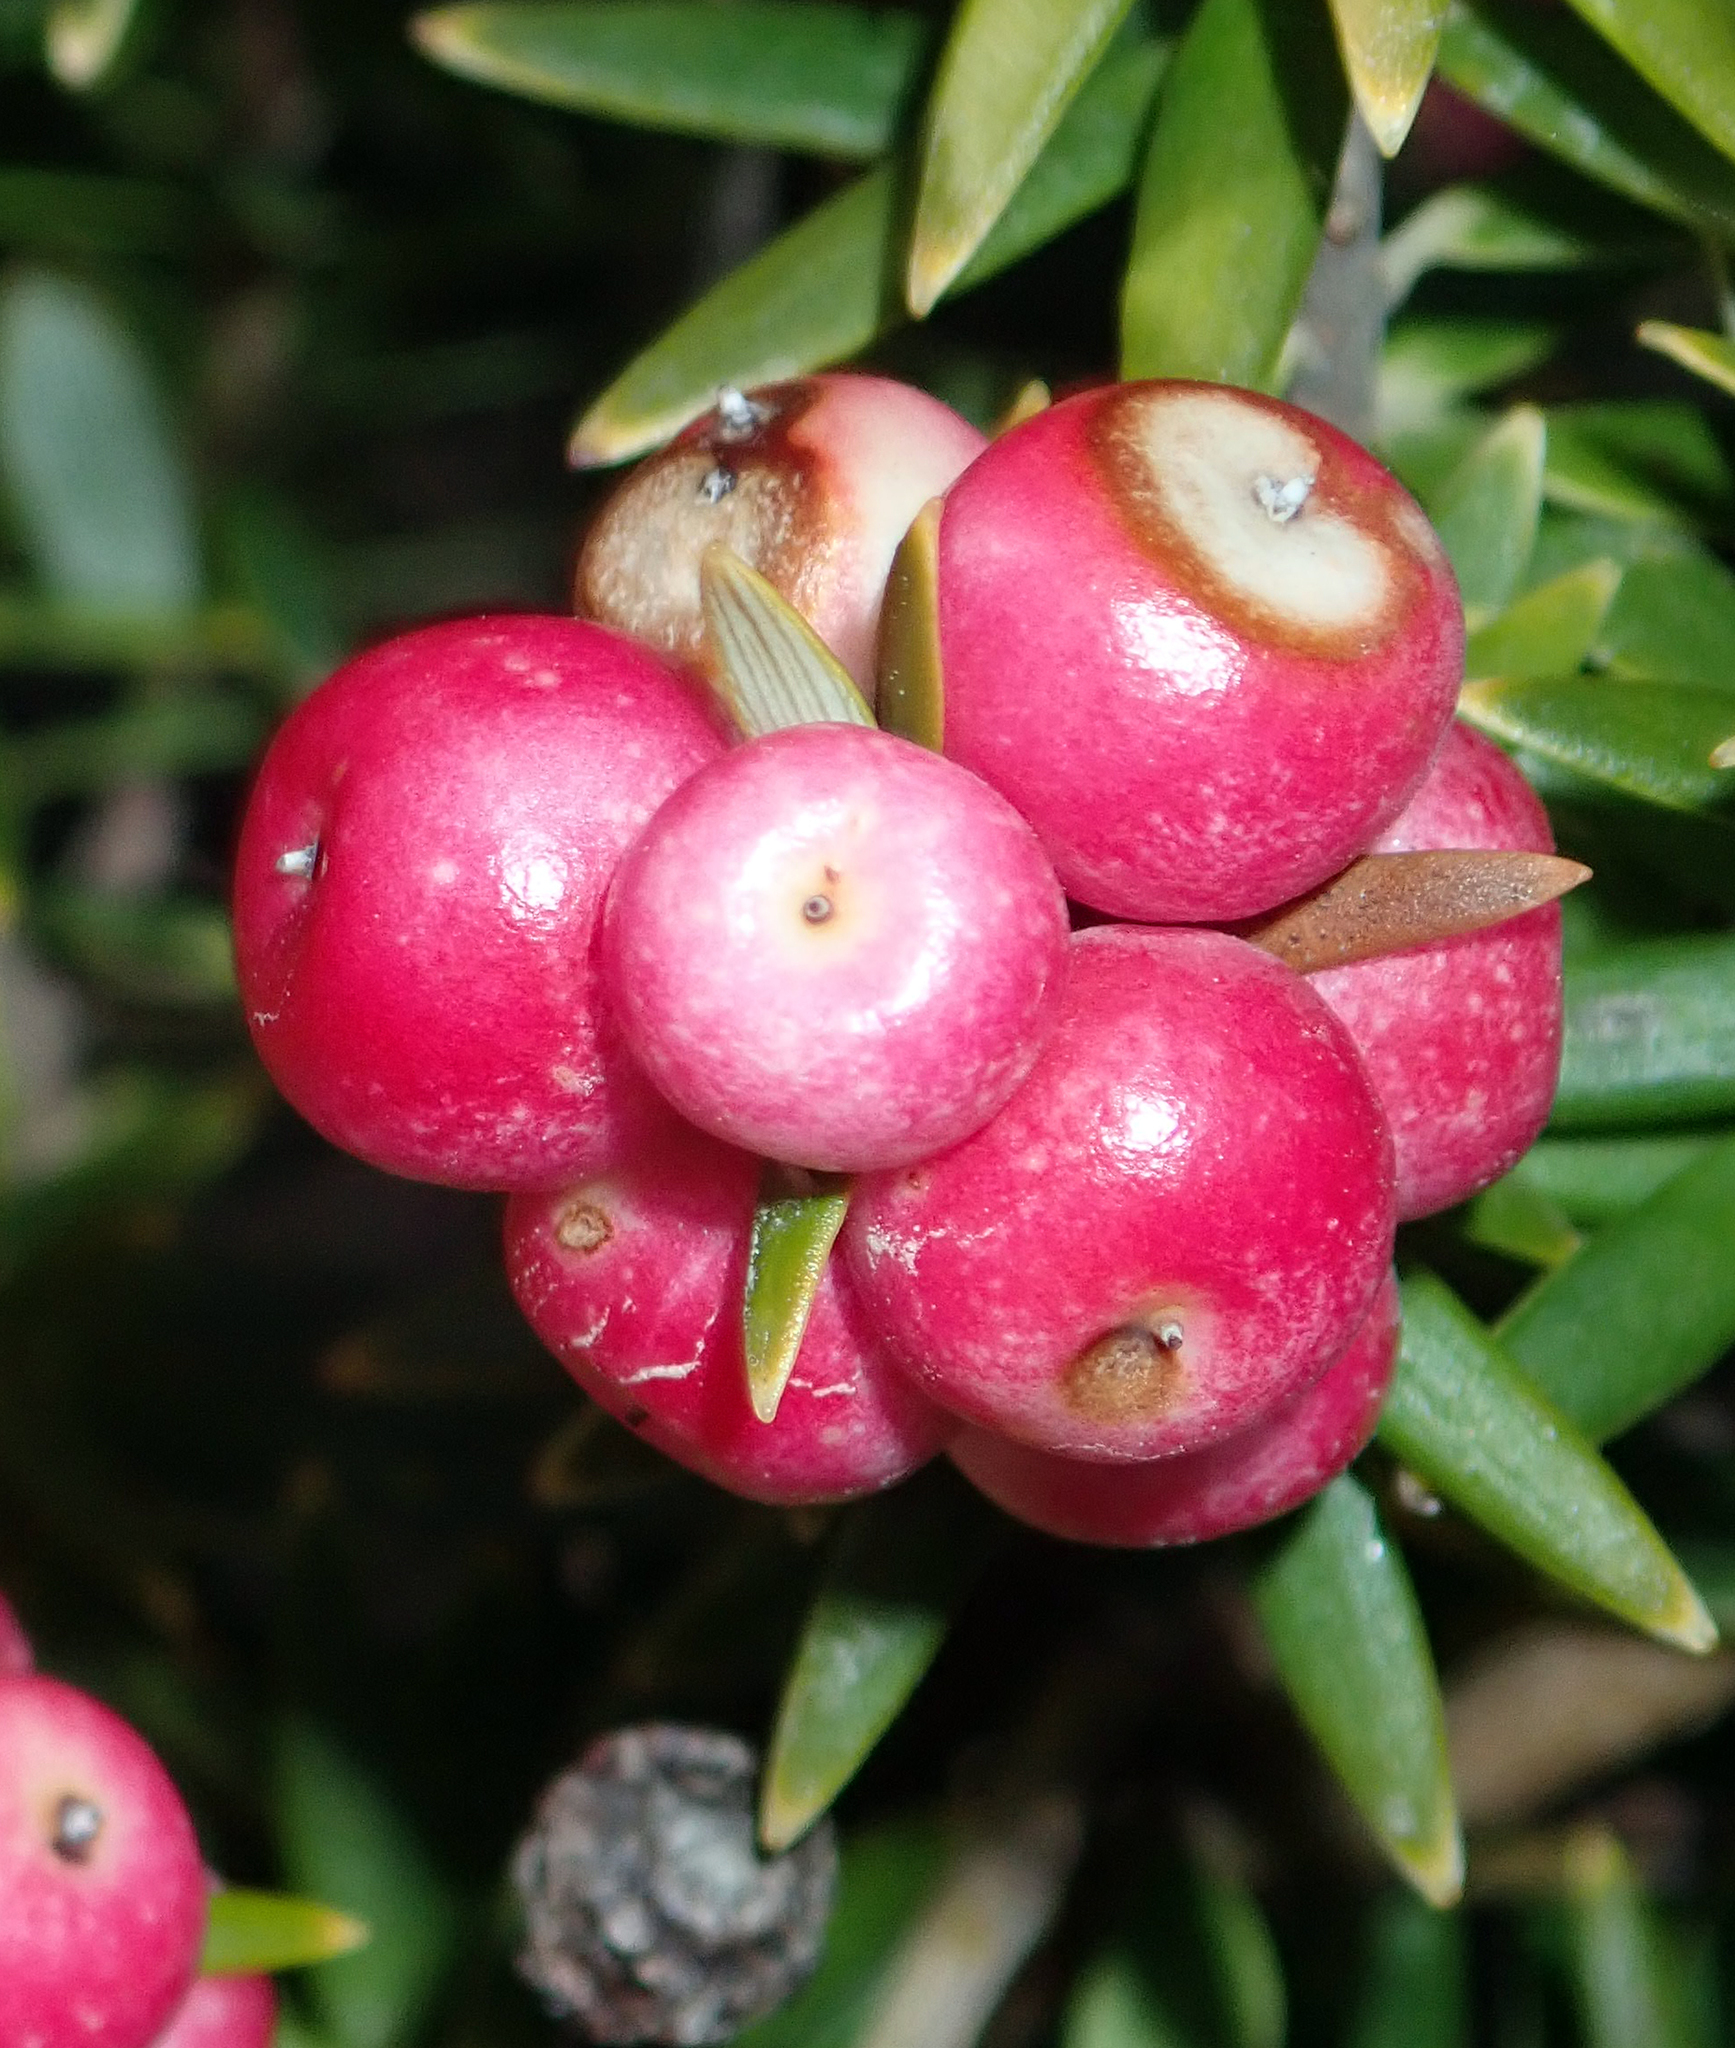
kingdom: Plantae
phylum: Tracheophyta
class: Magnoliopsida
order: Ericales
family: Ericaceae
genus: Leptecophylla
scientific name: Leptecophylla robusta
